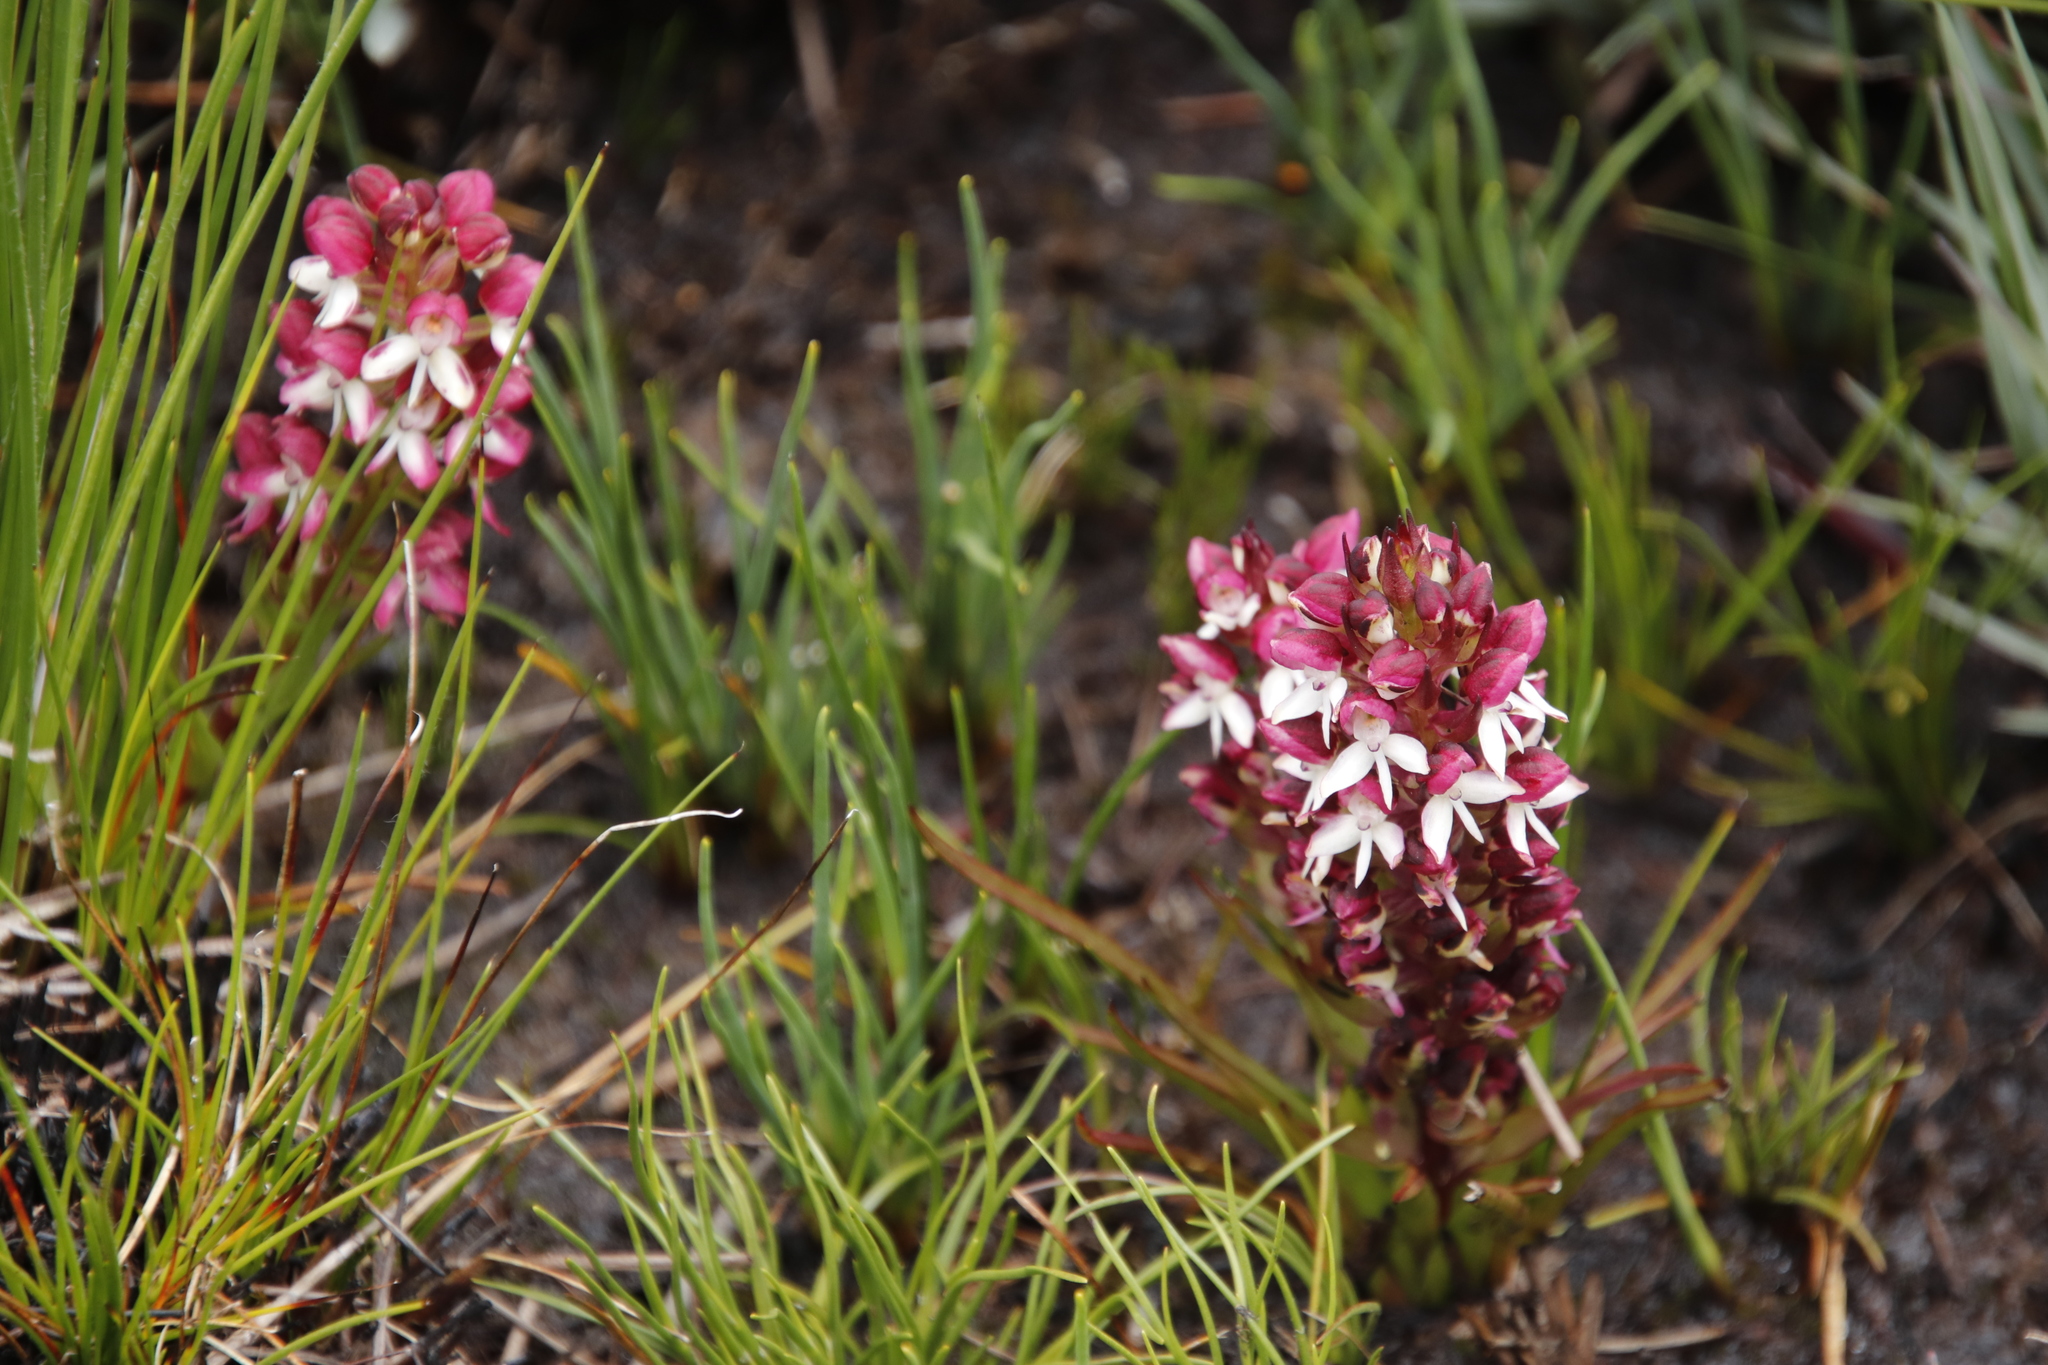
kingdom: Plantae
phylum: Tracheophyta
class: Liliopsida
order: Asparagales
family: Orchidaceae
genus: Disa
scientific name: Disa albomagentea
